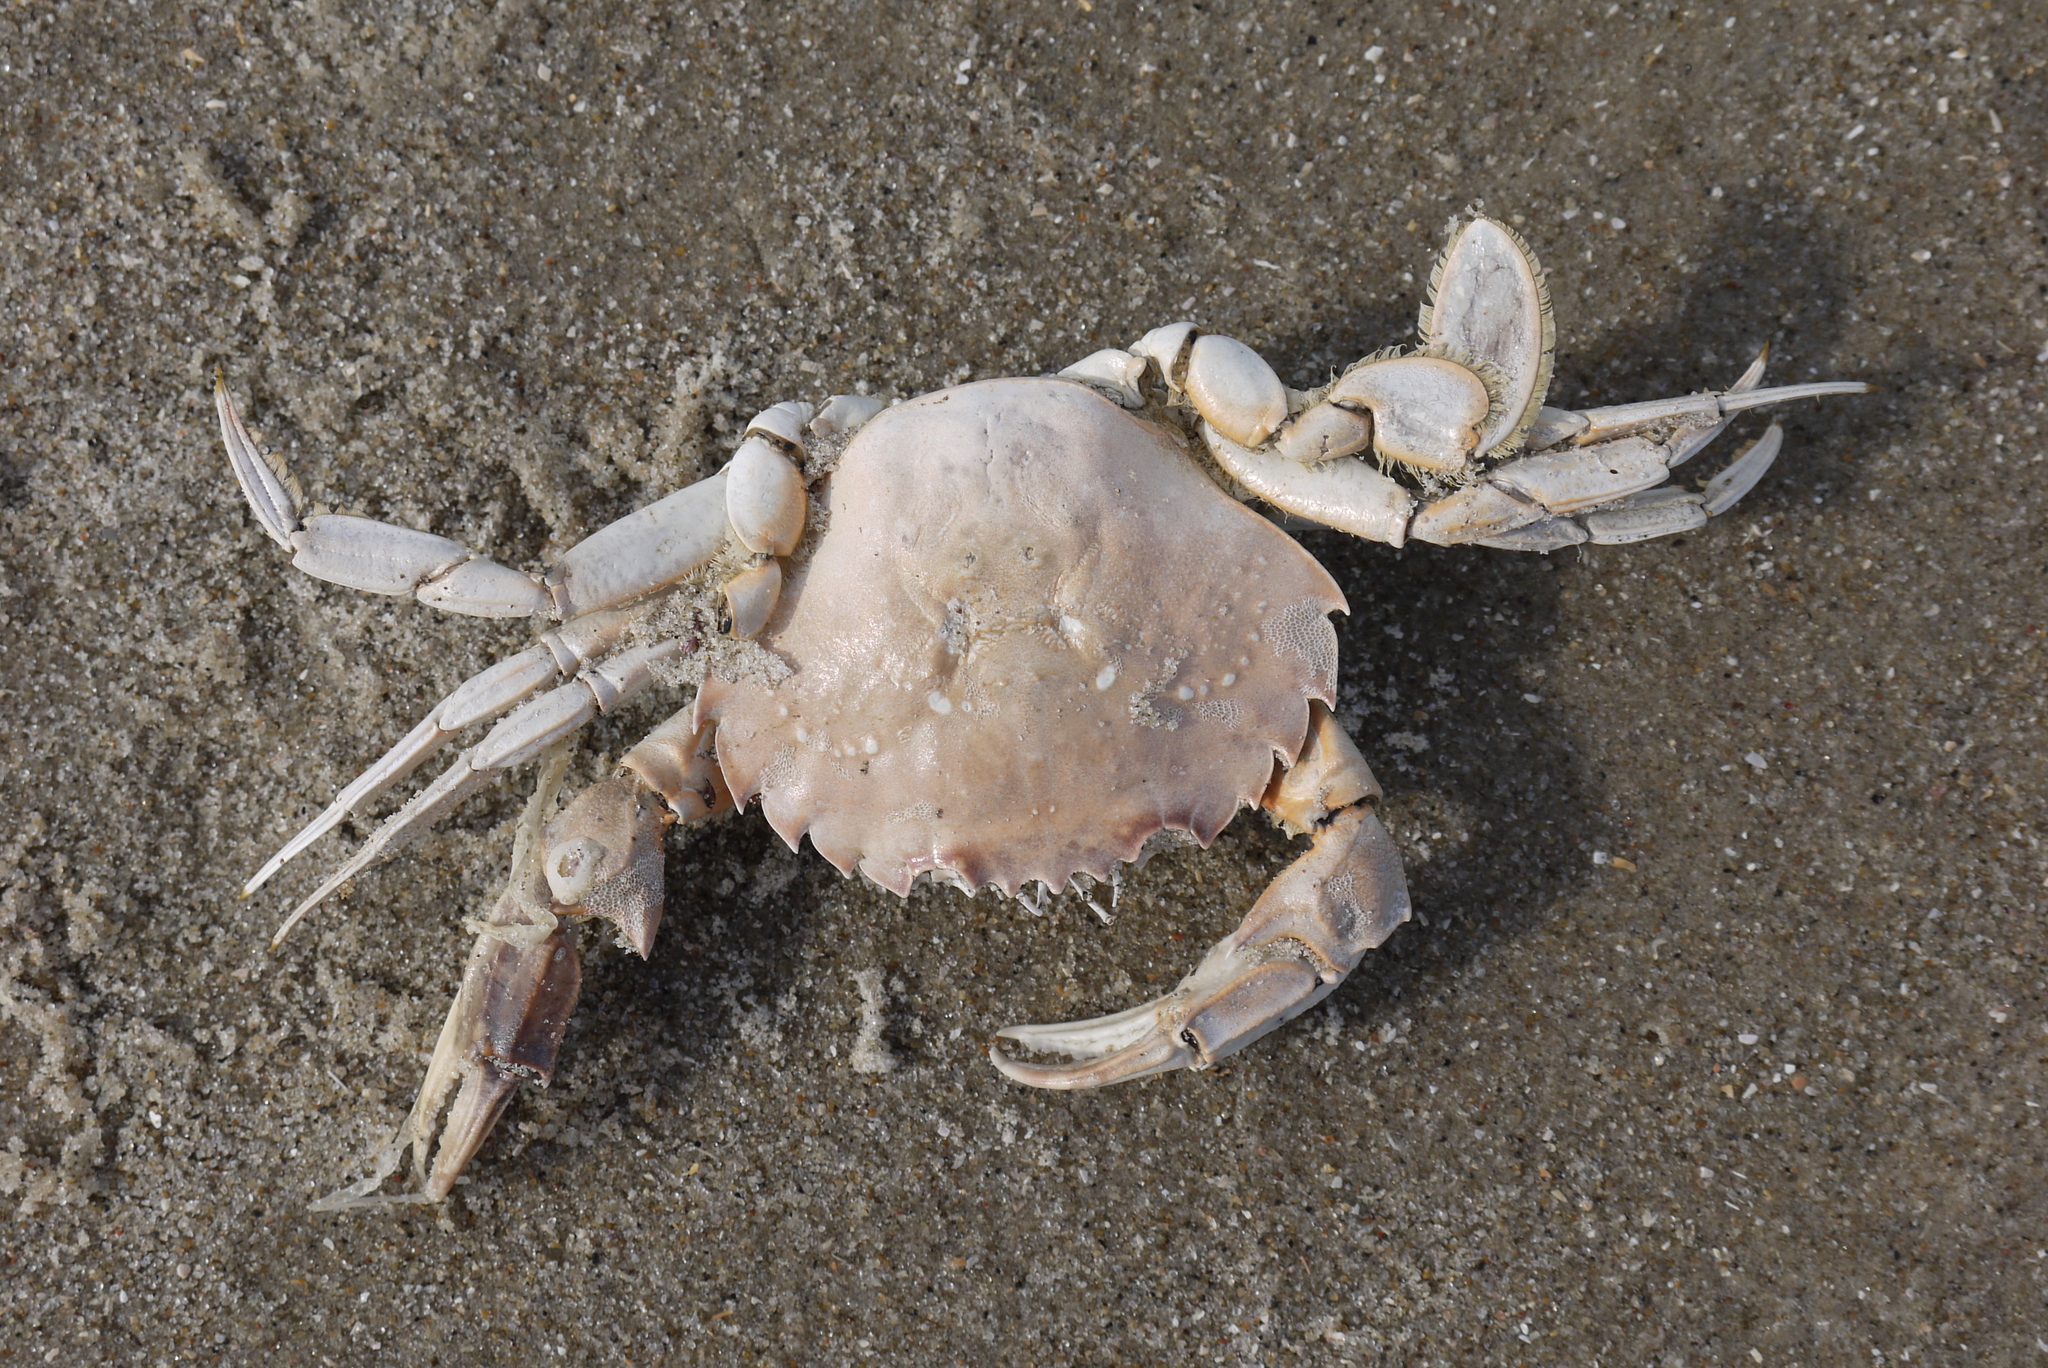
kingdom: Animalia
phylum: Arthropoda
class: Malacostraca
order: Decapoda
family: Polybiidae
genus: Liocarcinus
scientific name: Liocarcinus holsatus
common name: Flying crab
